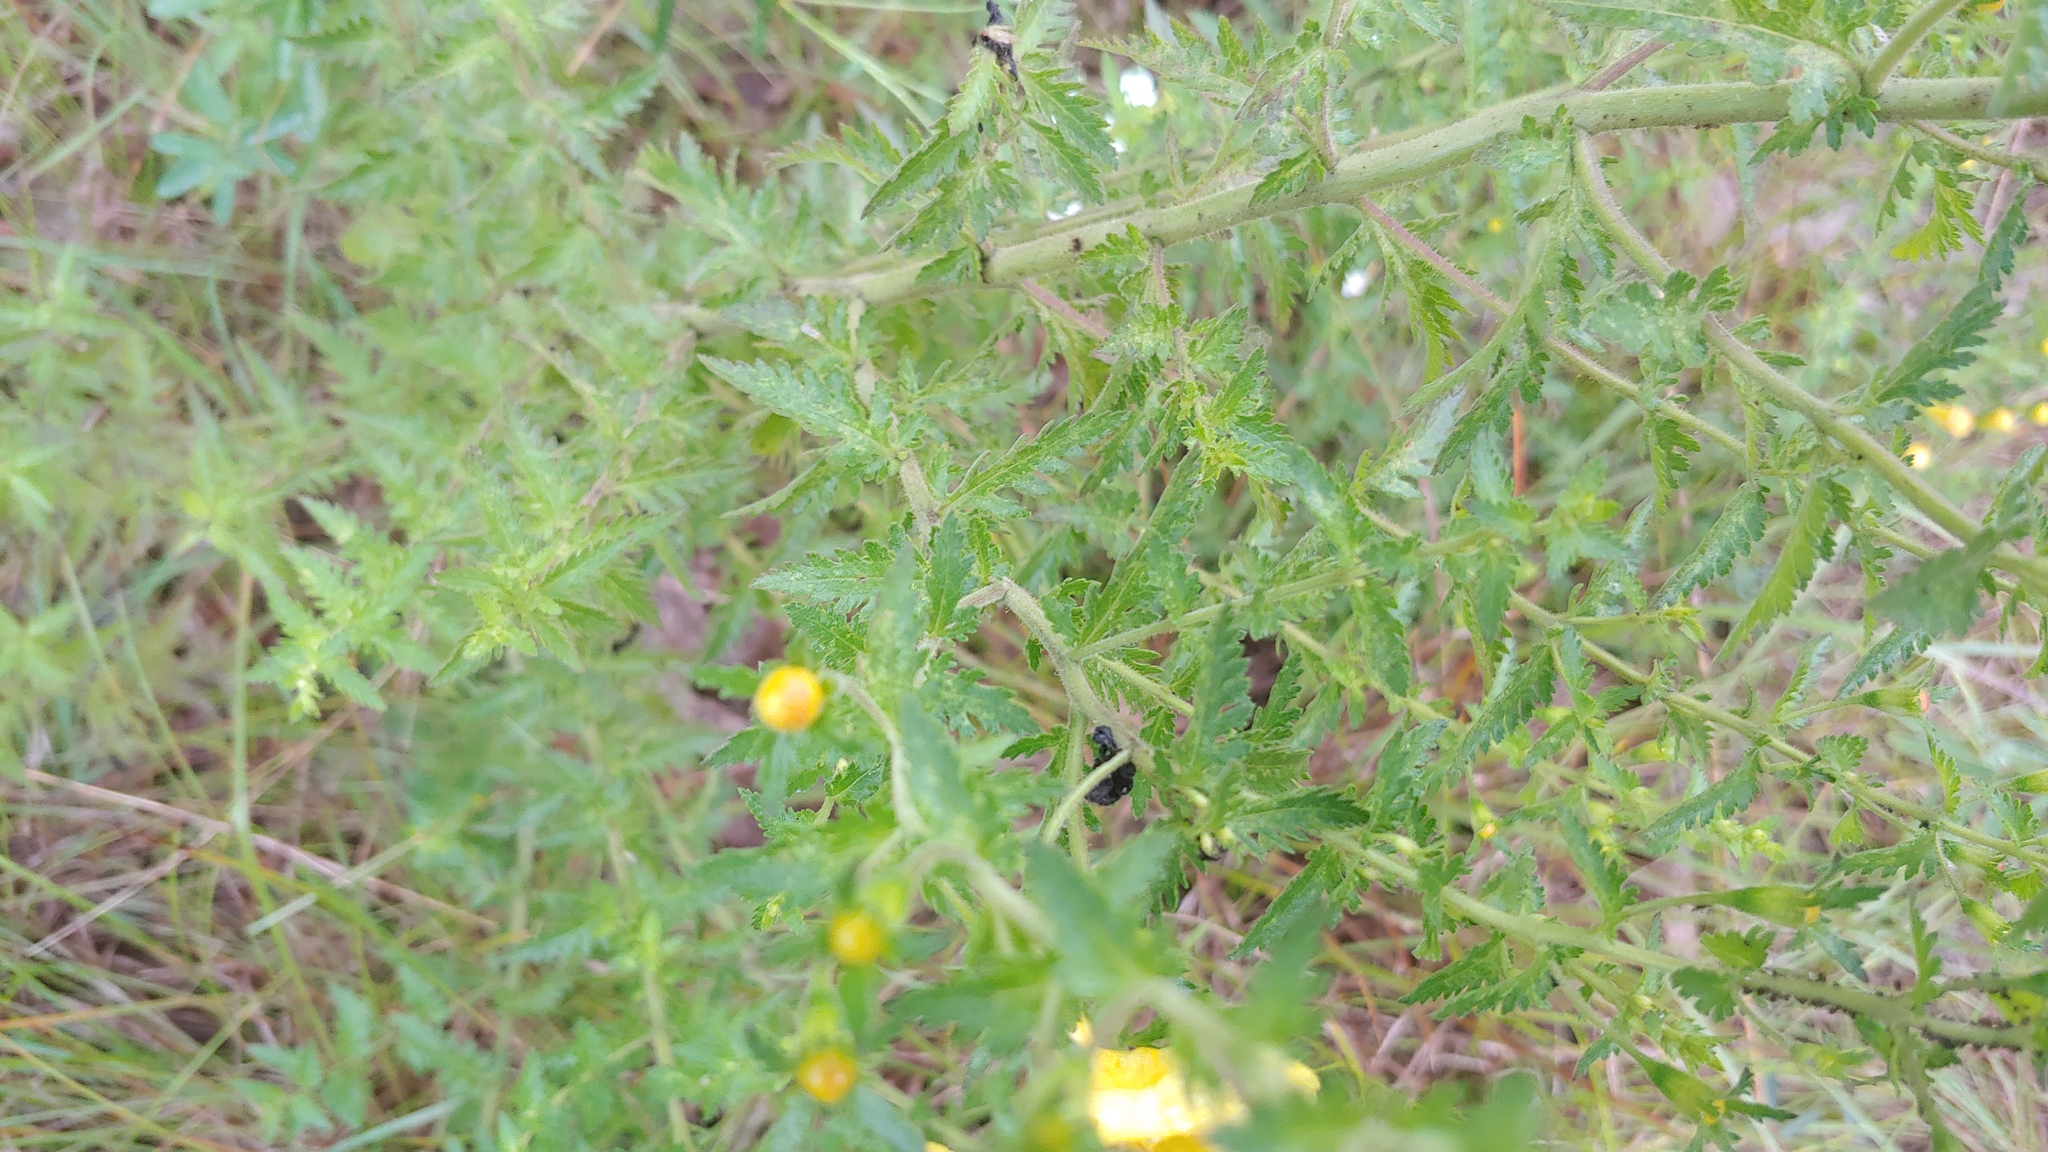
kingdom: Plantae
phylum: Tracheophyta
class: Magnoliopsida
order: Lamiales
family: Orobanchaceae
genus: Aureolaria
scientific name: Aureolaria pedicularia
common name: Annual false foxglove
